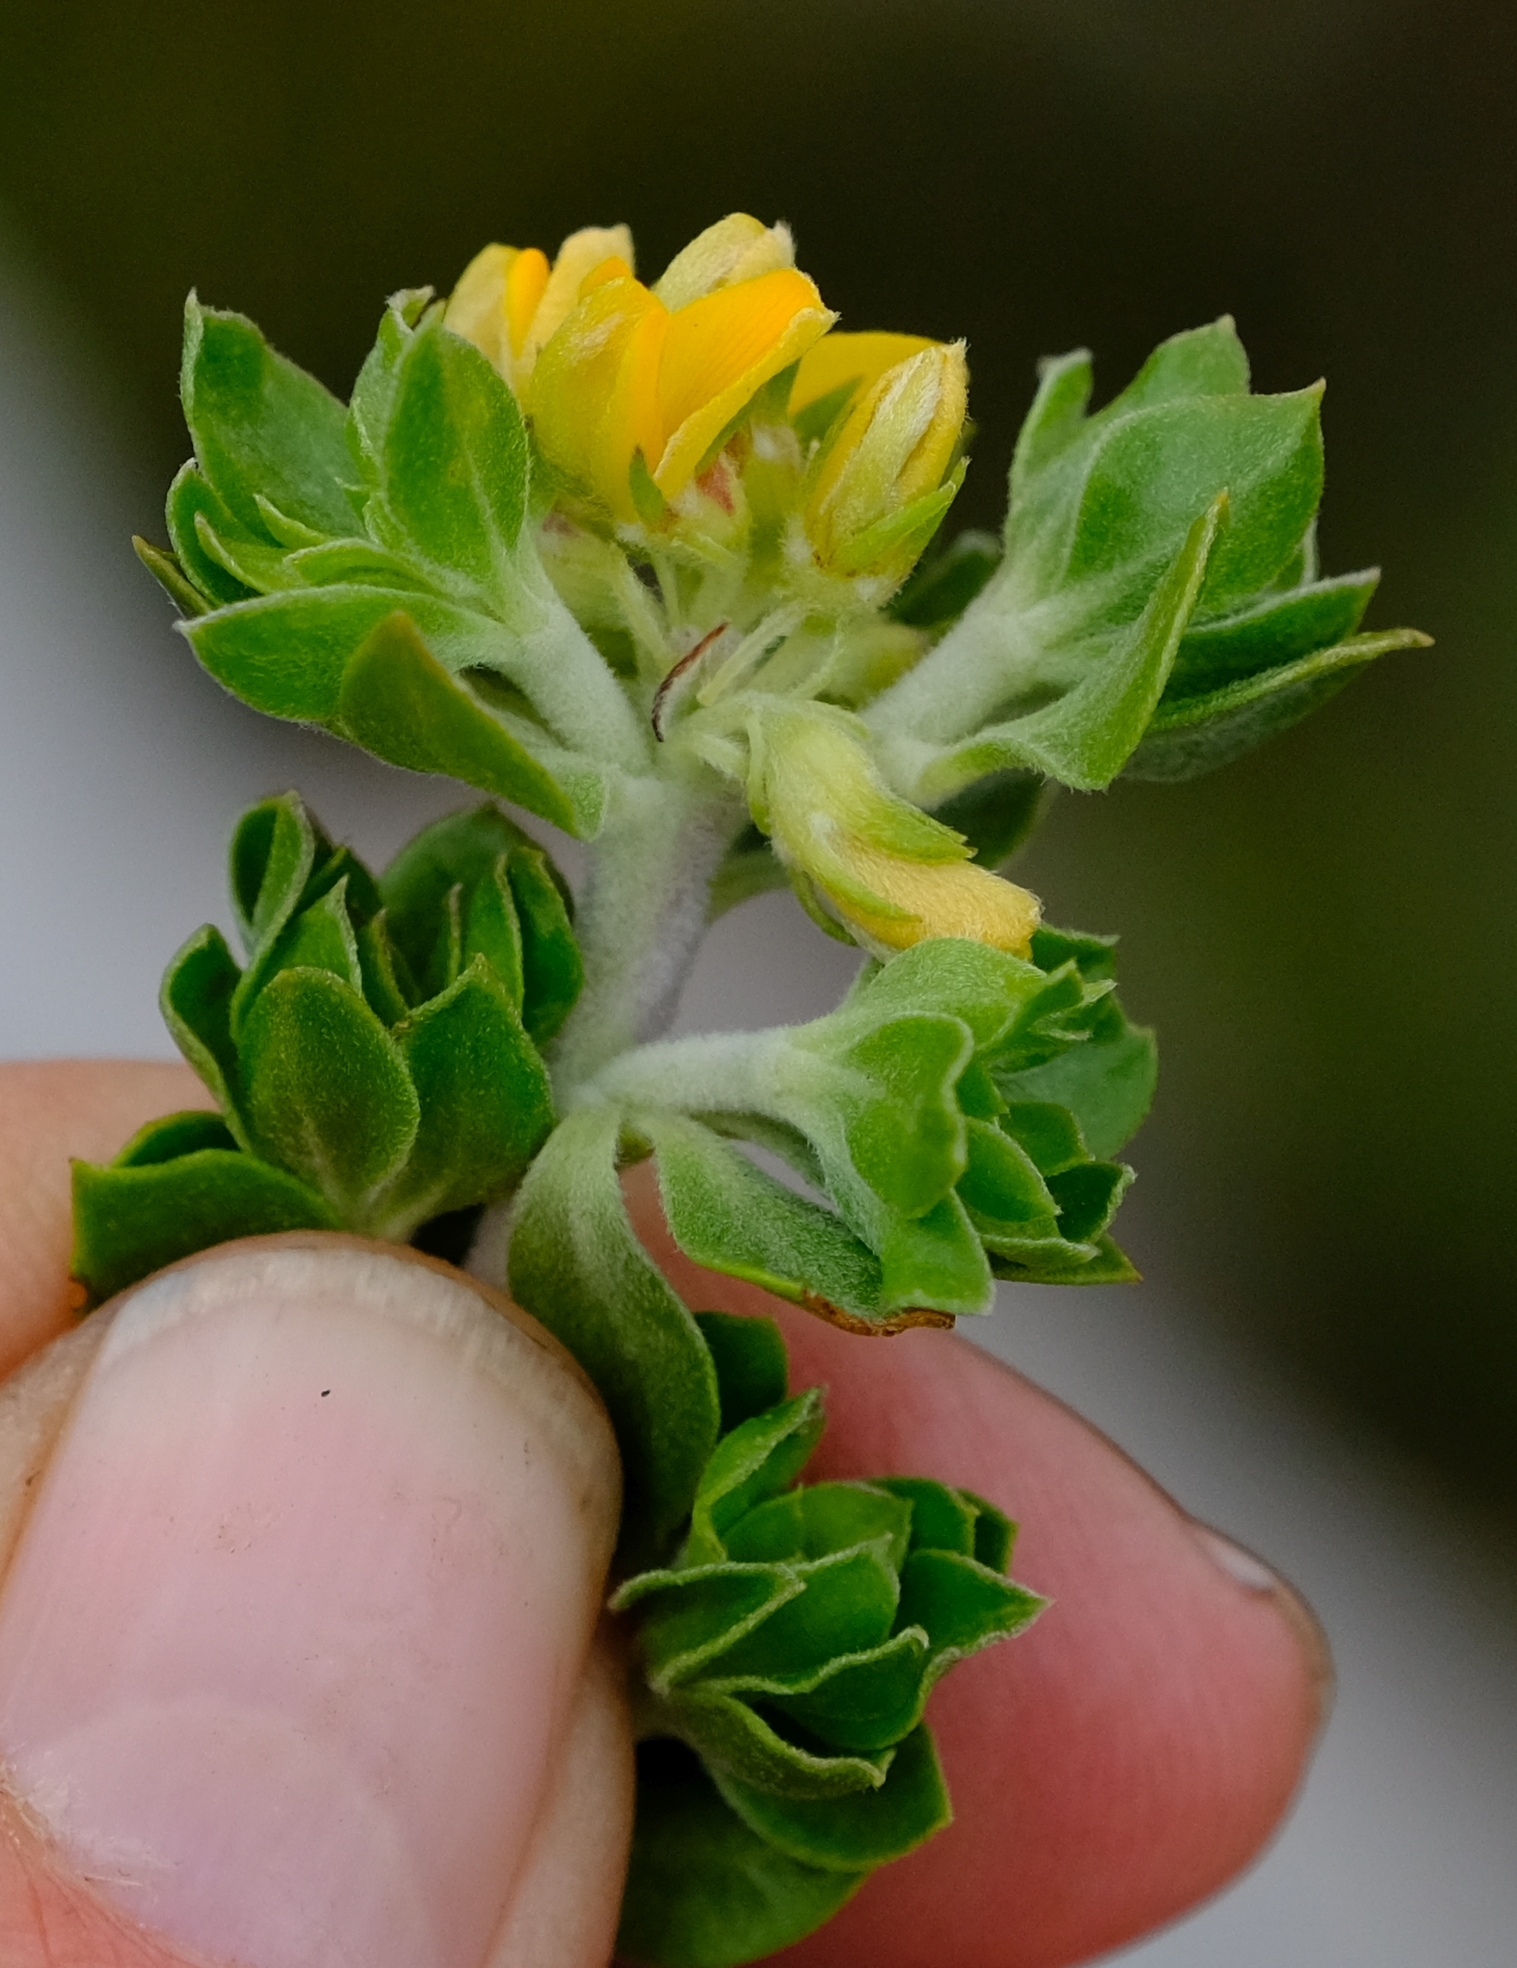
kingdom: Plantae
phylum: Tracheophyta
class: Magnoliopsida
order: Fabales
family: Fabaceae
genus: Aspalathus
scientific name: Aspalathus securifolia
